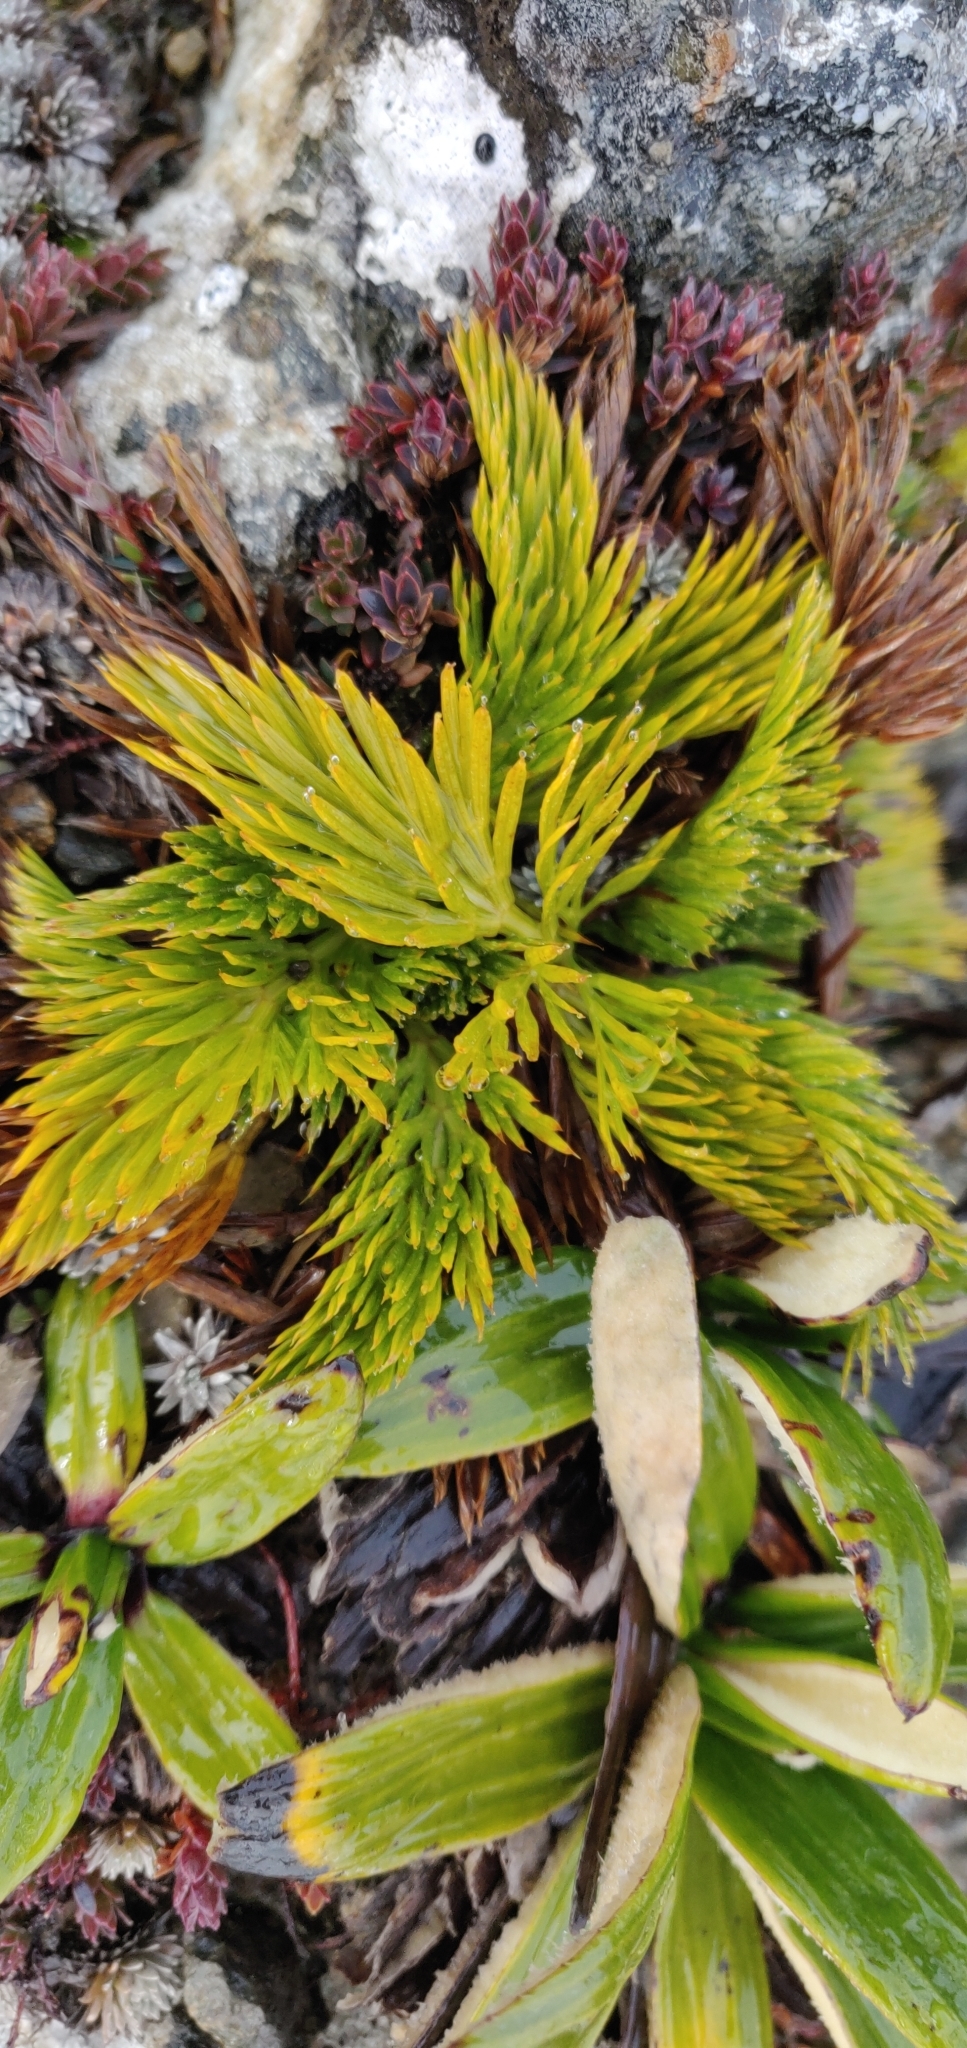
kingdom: Plantae
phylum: Tracheophyta
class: Magnoliopsida
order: Apiales
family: Apiaceae
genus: Aciphylla
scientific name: Aciphylla dissecta
